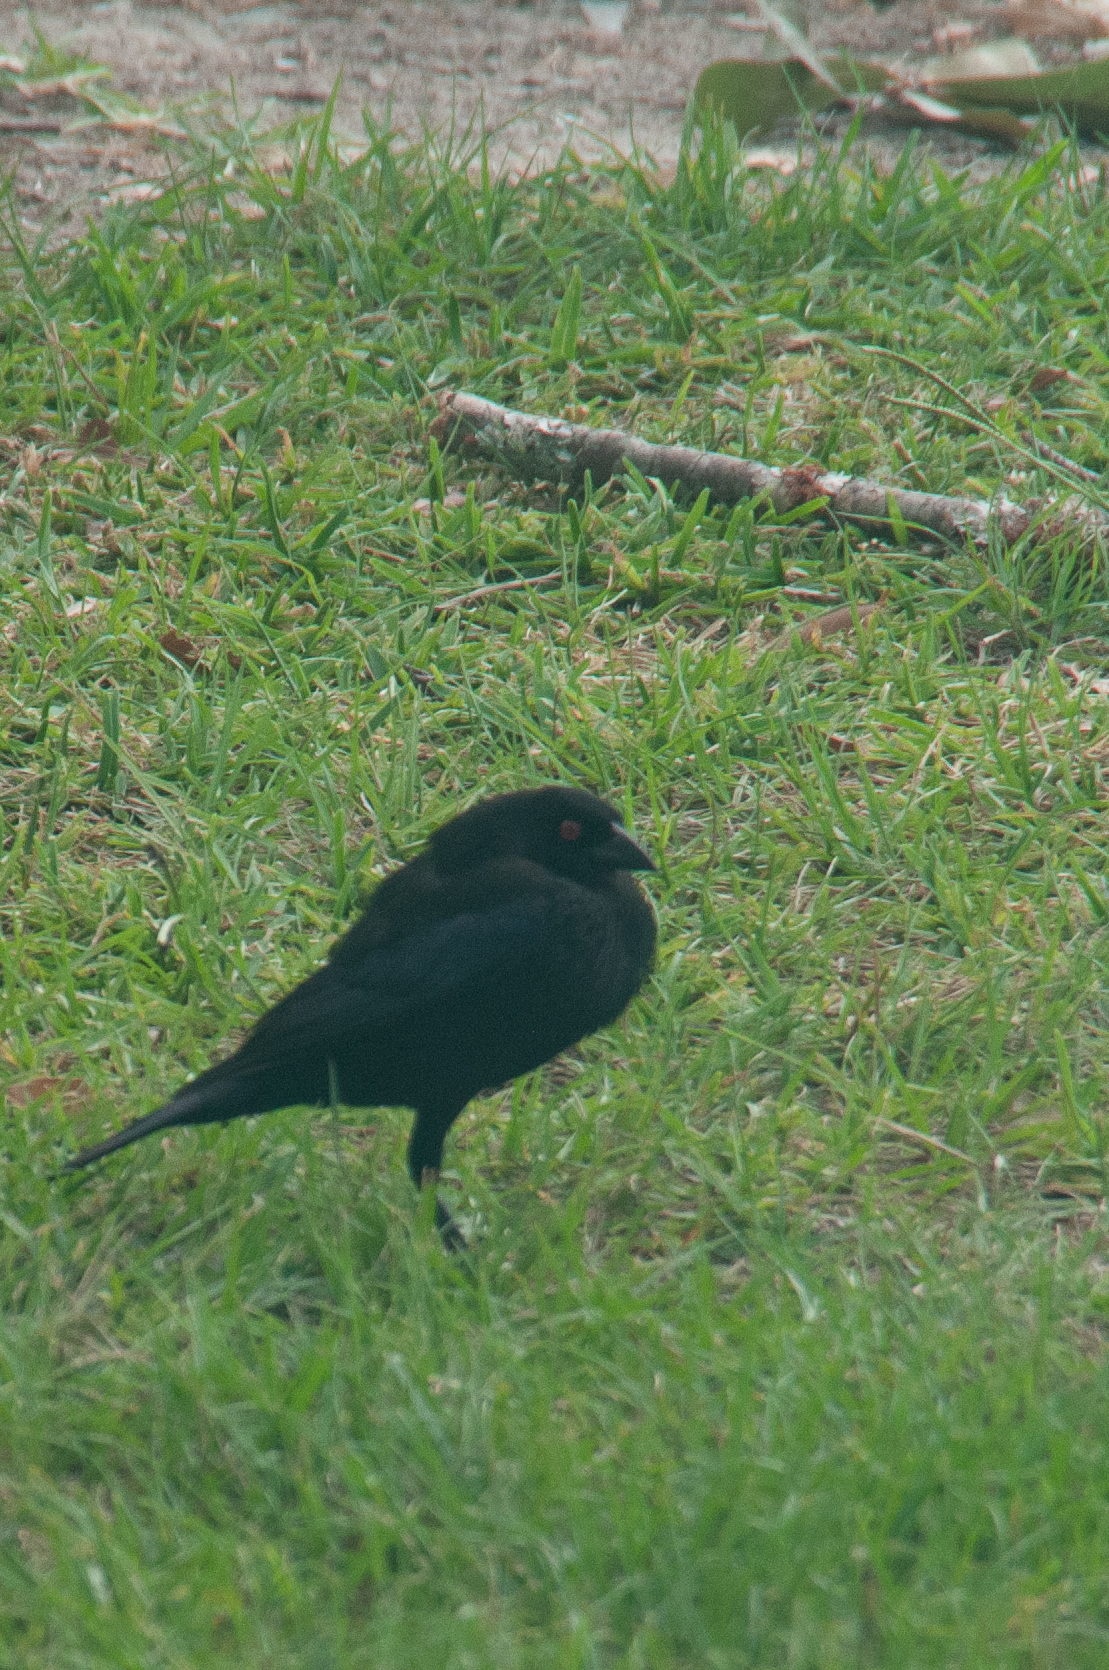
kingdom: Animalia
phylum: Chordata
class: Aves
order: Passeriformes
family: Icteridae
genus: Molothrus
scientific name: Molothrus aeneus
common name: Bronzed cowbird
